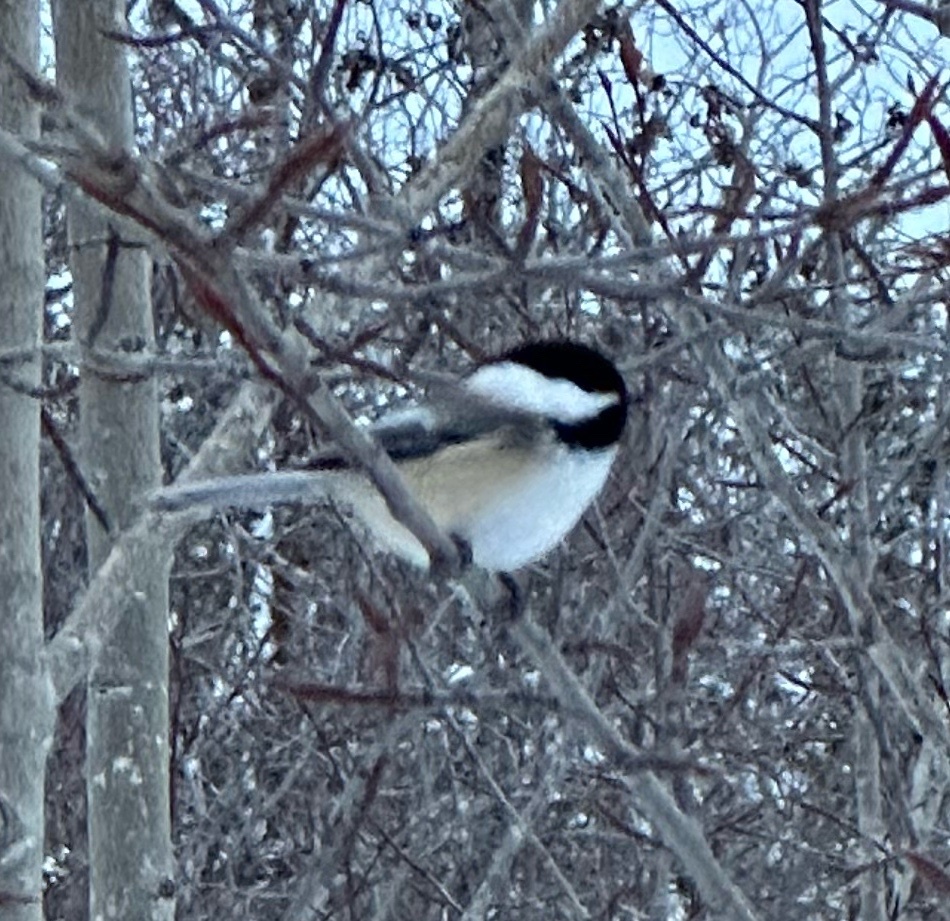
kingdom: Animalia
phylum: Chordata
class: Aves
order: Passeriformes
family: Paridae
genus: Poecile
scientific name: Poecile atricapillus
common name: Black-capped chickadee
